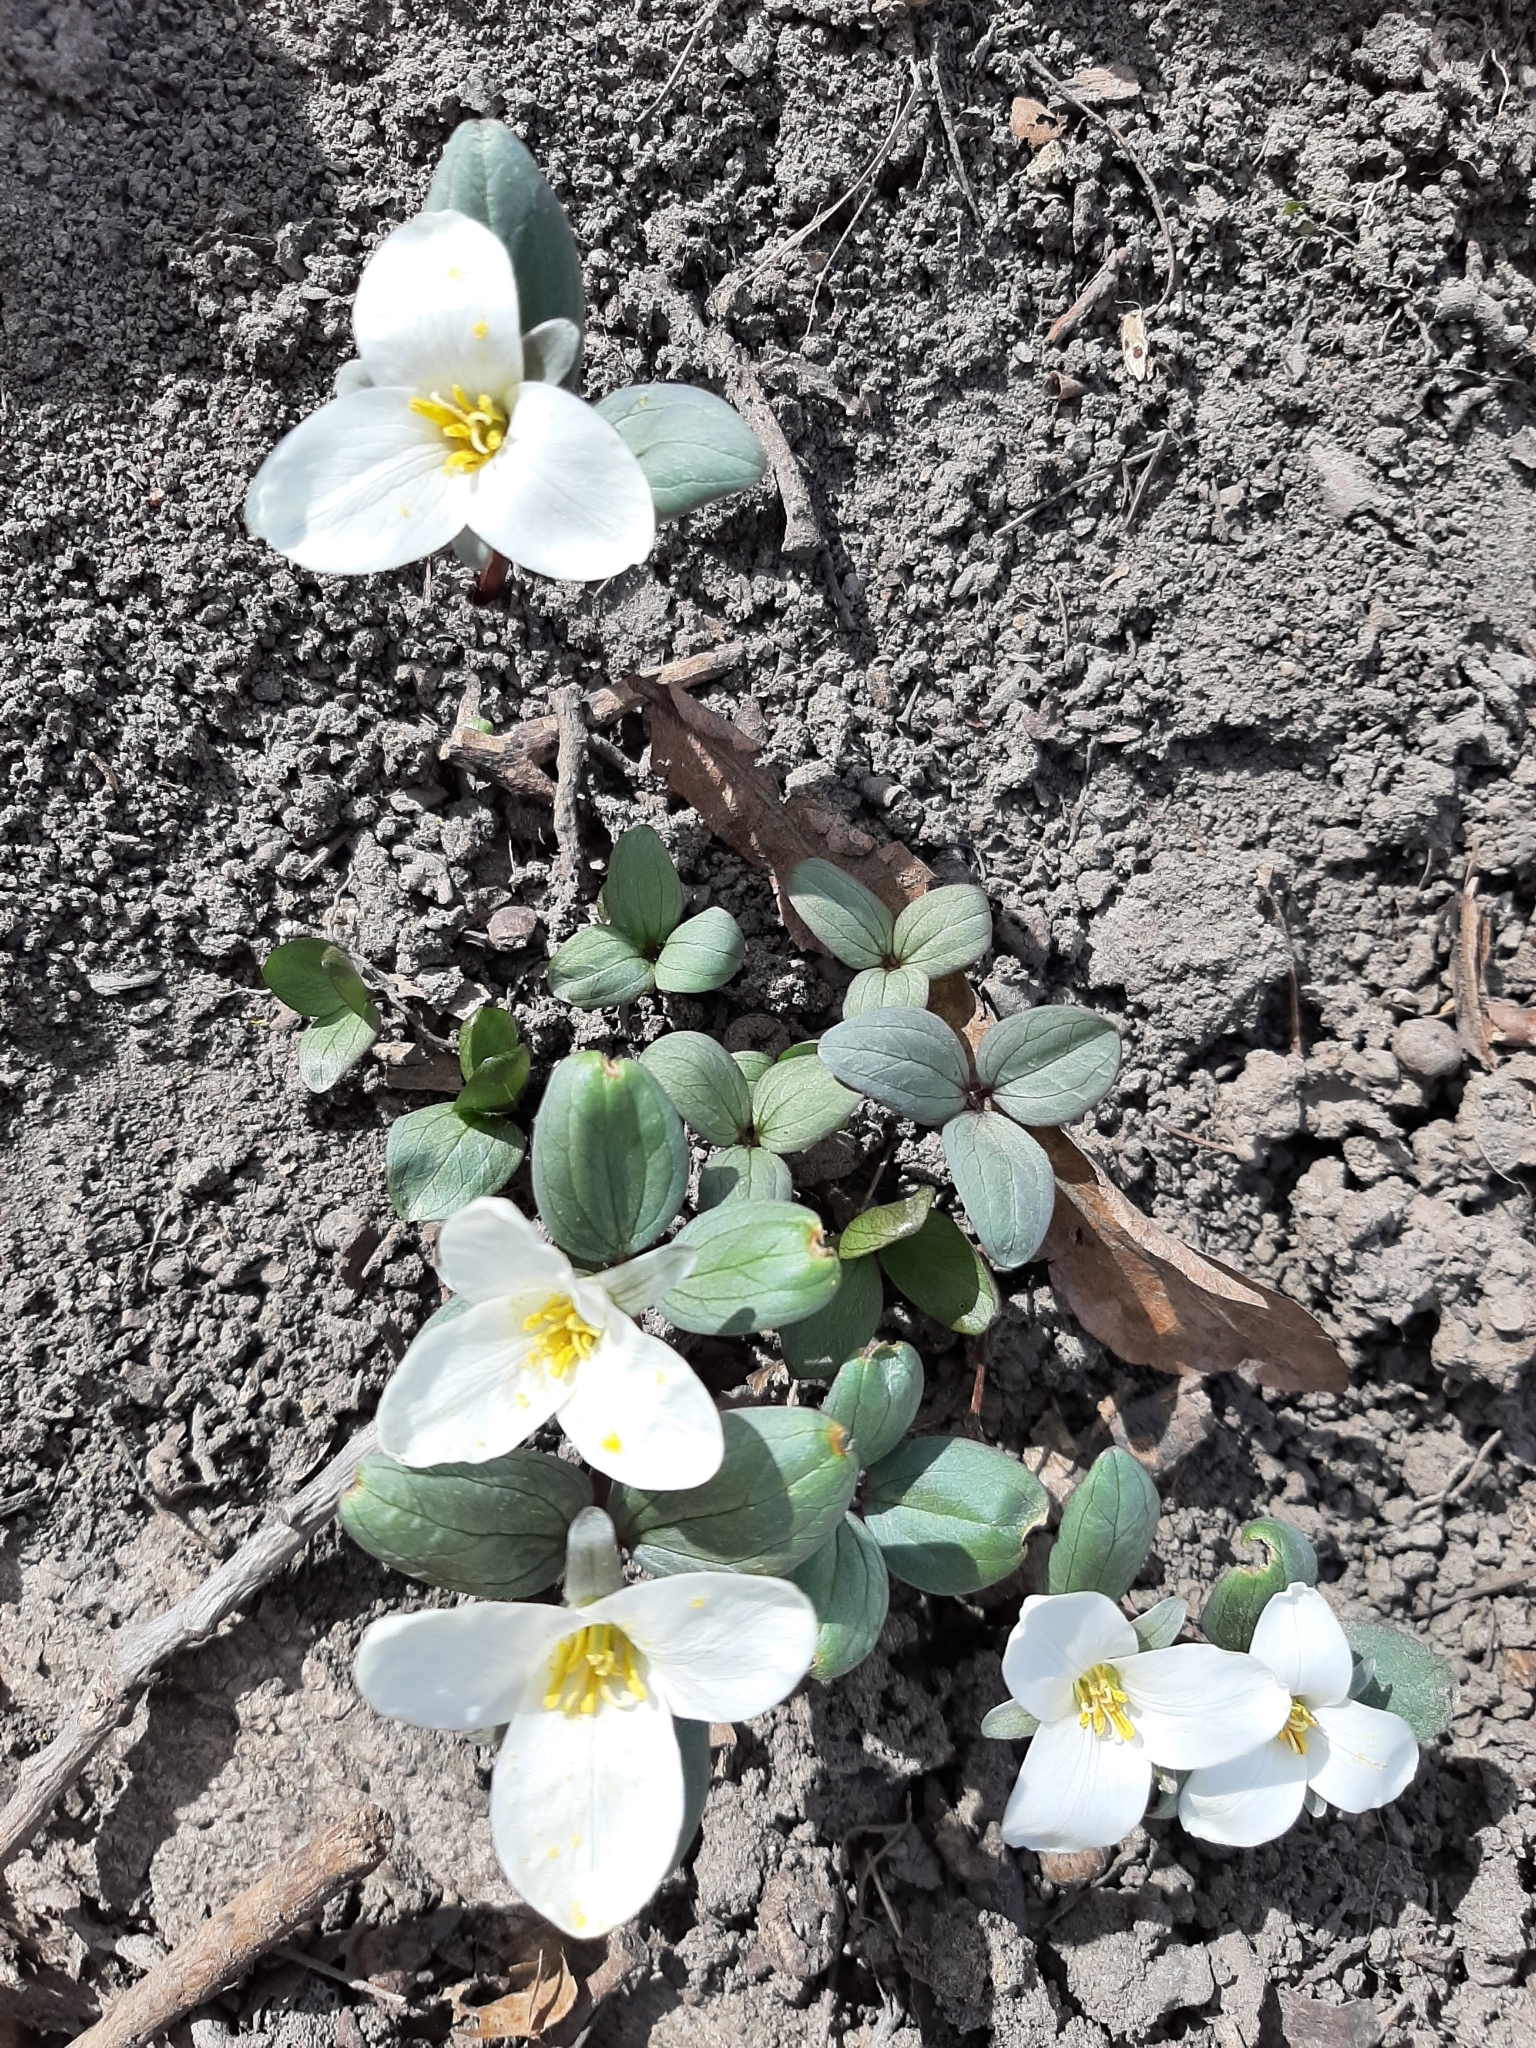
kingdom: Plantae
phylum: Tracheophyta
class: Liliopsida
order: Liliales
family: Melanthiaceae
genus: Trillium
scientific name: Trillium nivale
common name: Dwarf white trillium
